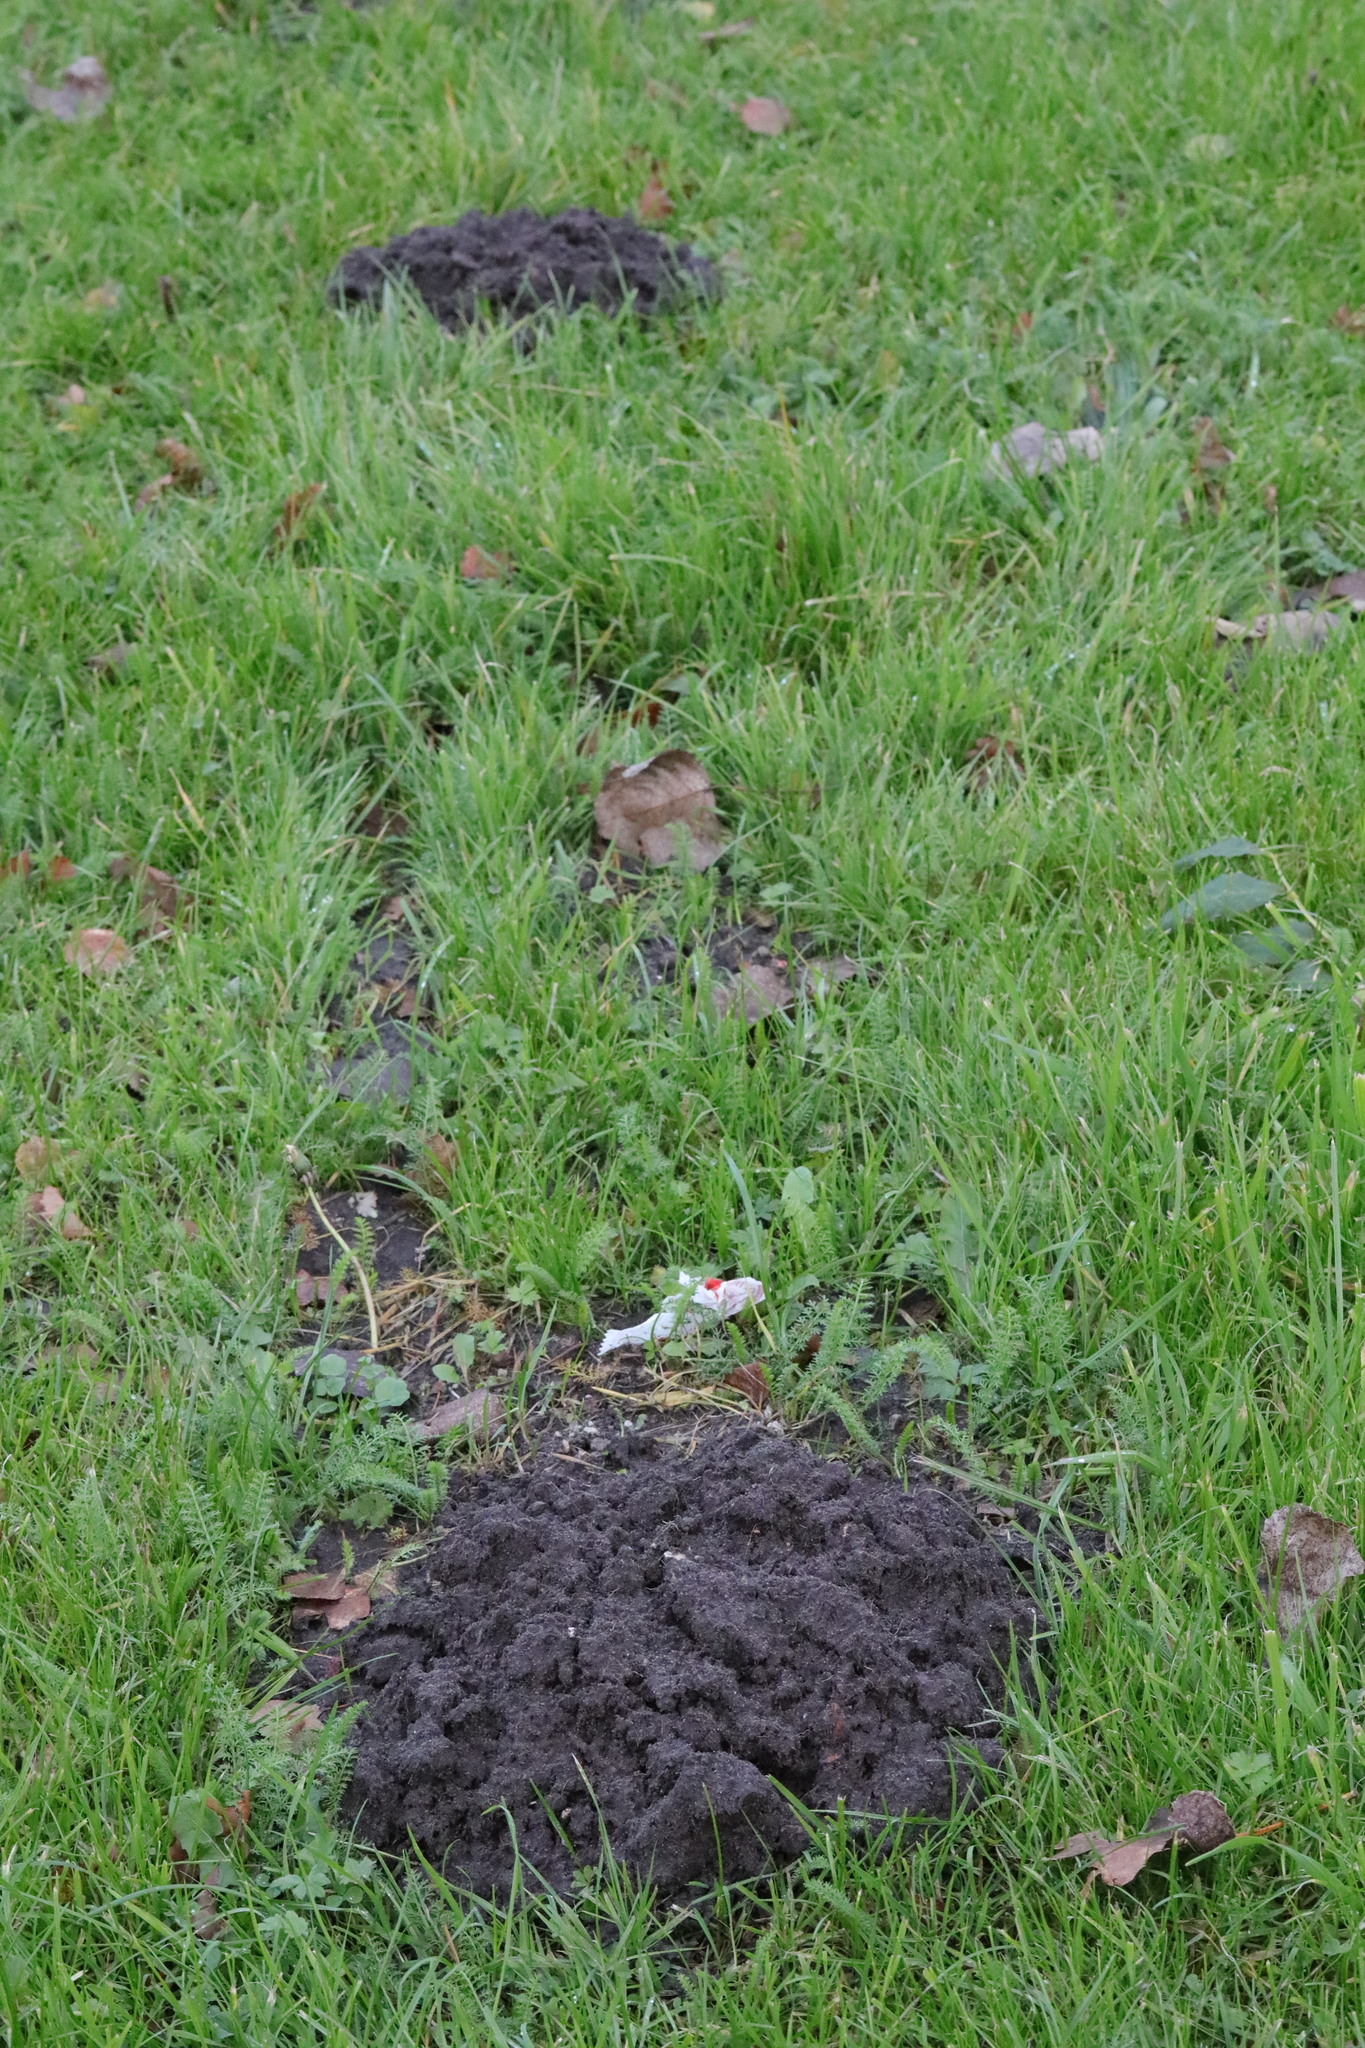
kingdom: Animalia
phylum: Chordata
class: Mammalia
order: Soricomorpha
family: Talpidae
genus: Talpa
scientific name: Talpa europaea
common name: European mole
